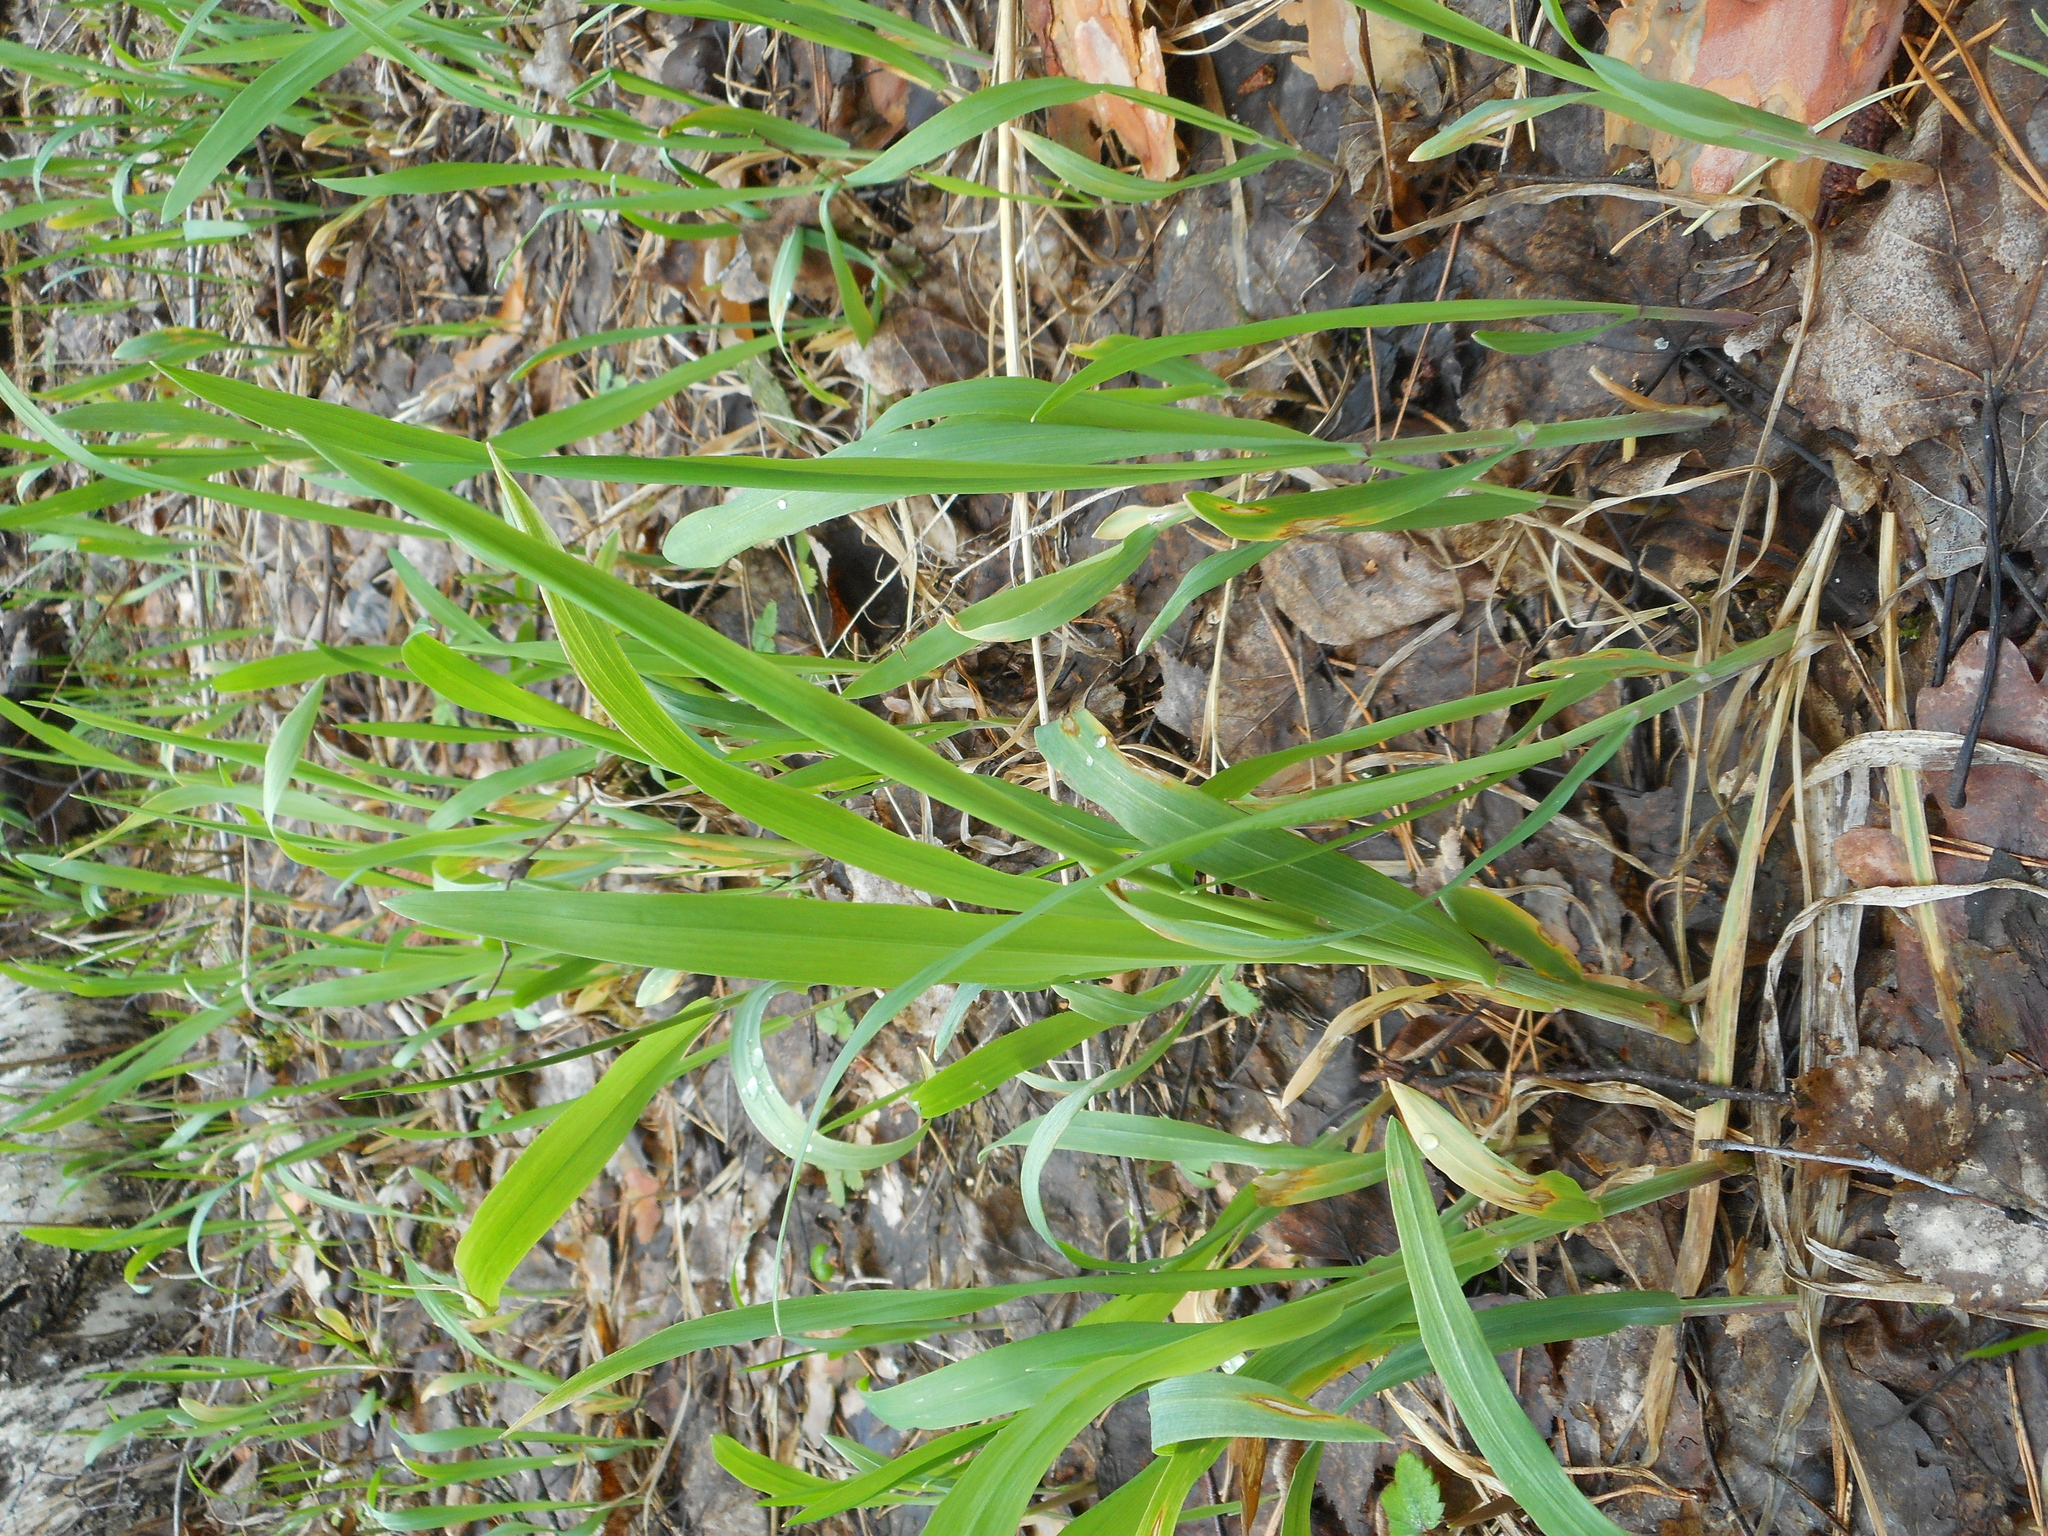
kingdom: Plantae
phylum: Tracheophyta
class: Liliopsida
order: Poales
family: Poaceae
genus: Milium
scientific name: Milium effusum
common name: Wood millet
